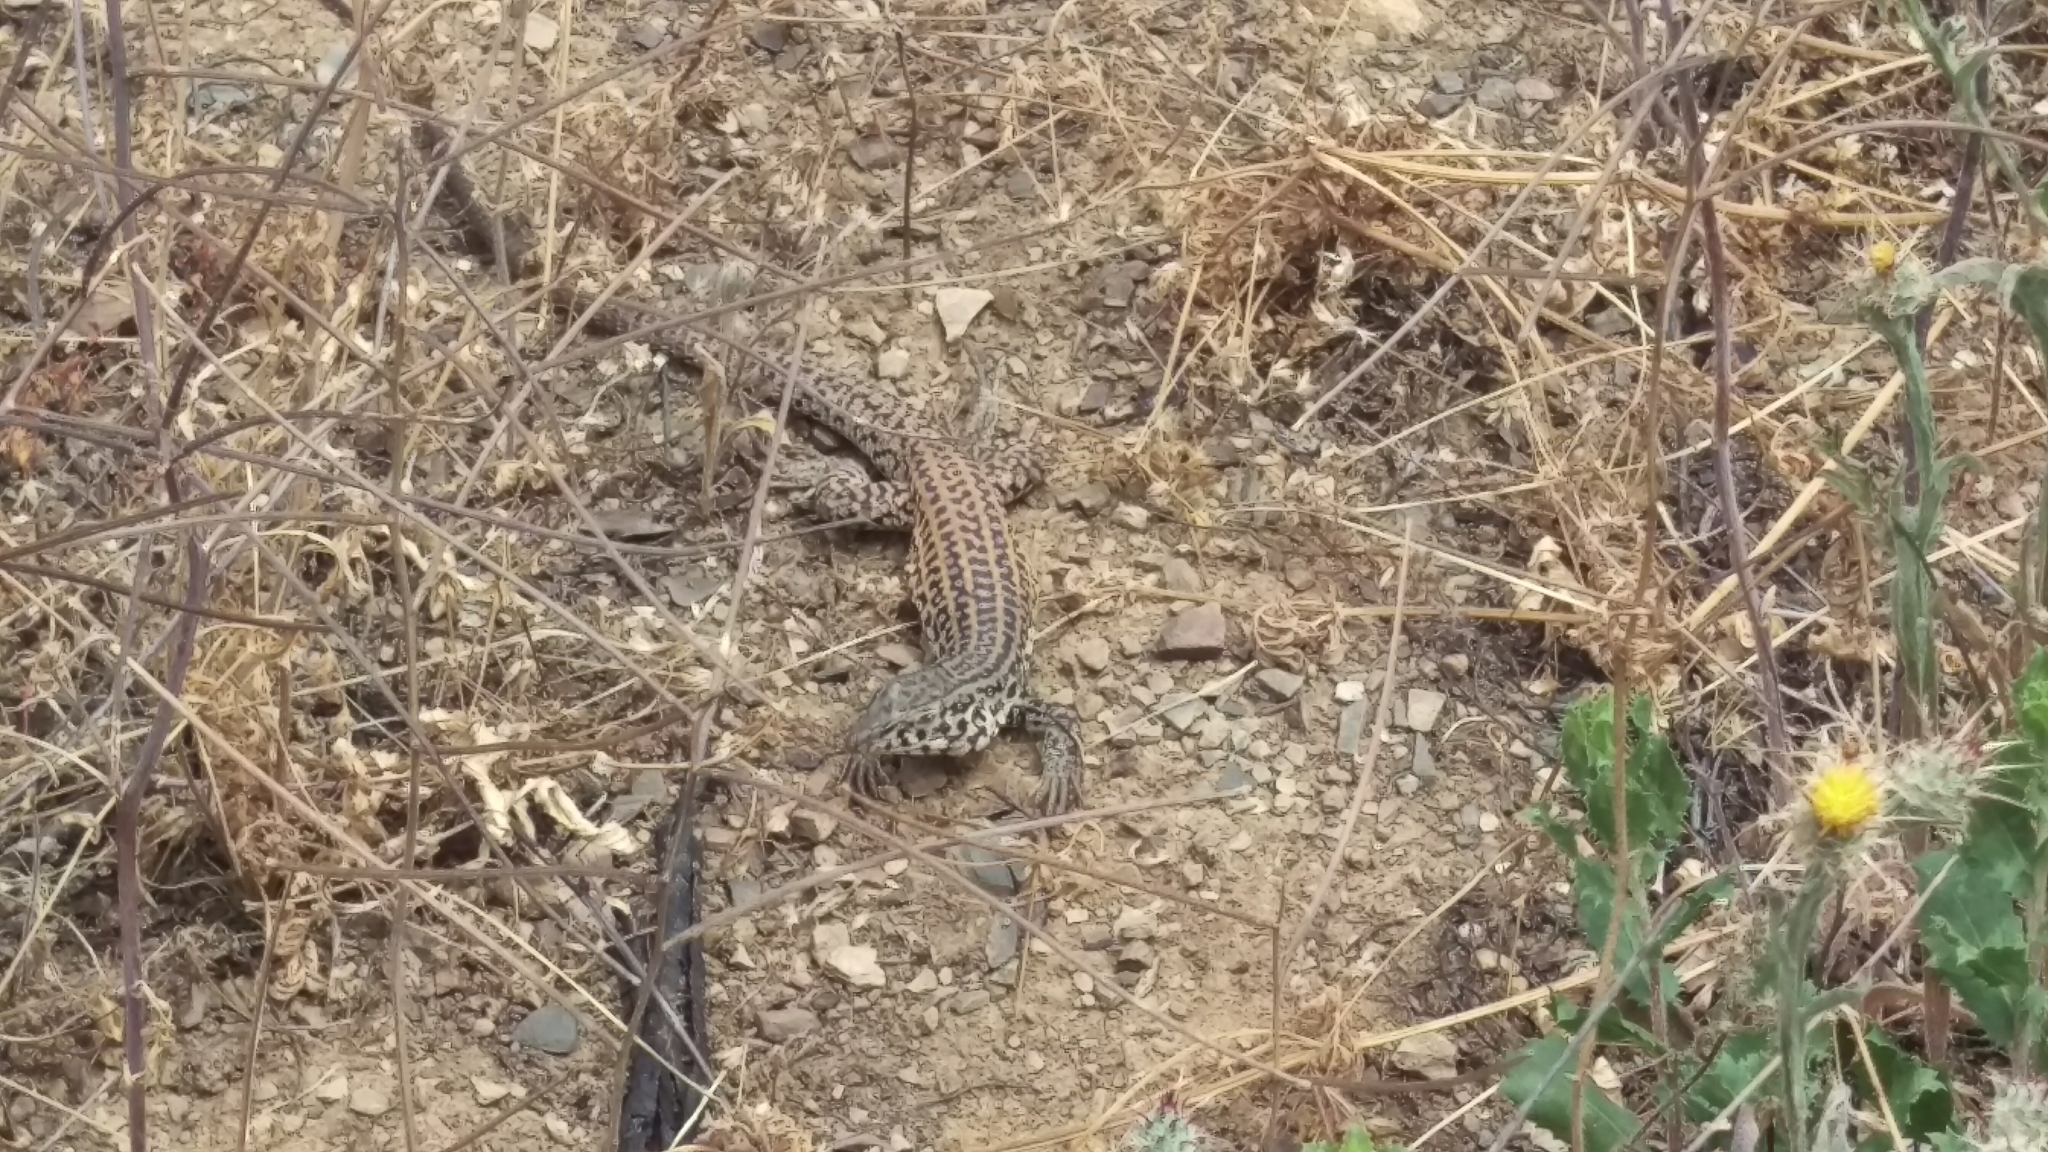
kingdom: Animalia
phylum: Chordata
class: Squamata
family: Teiidae
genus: Aspidoscelis
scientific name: Aspidoscelis tigris
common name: Tiger whiptail
